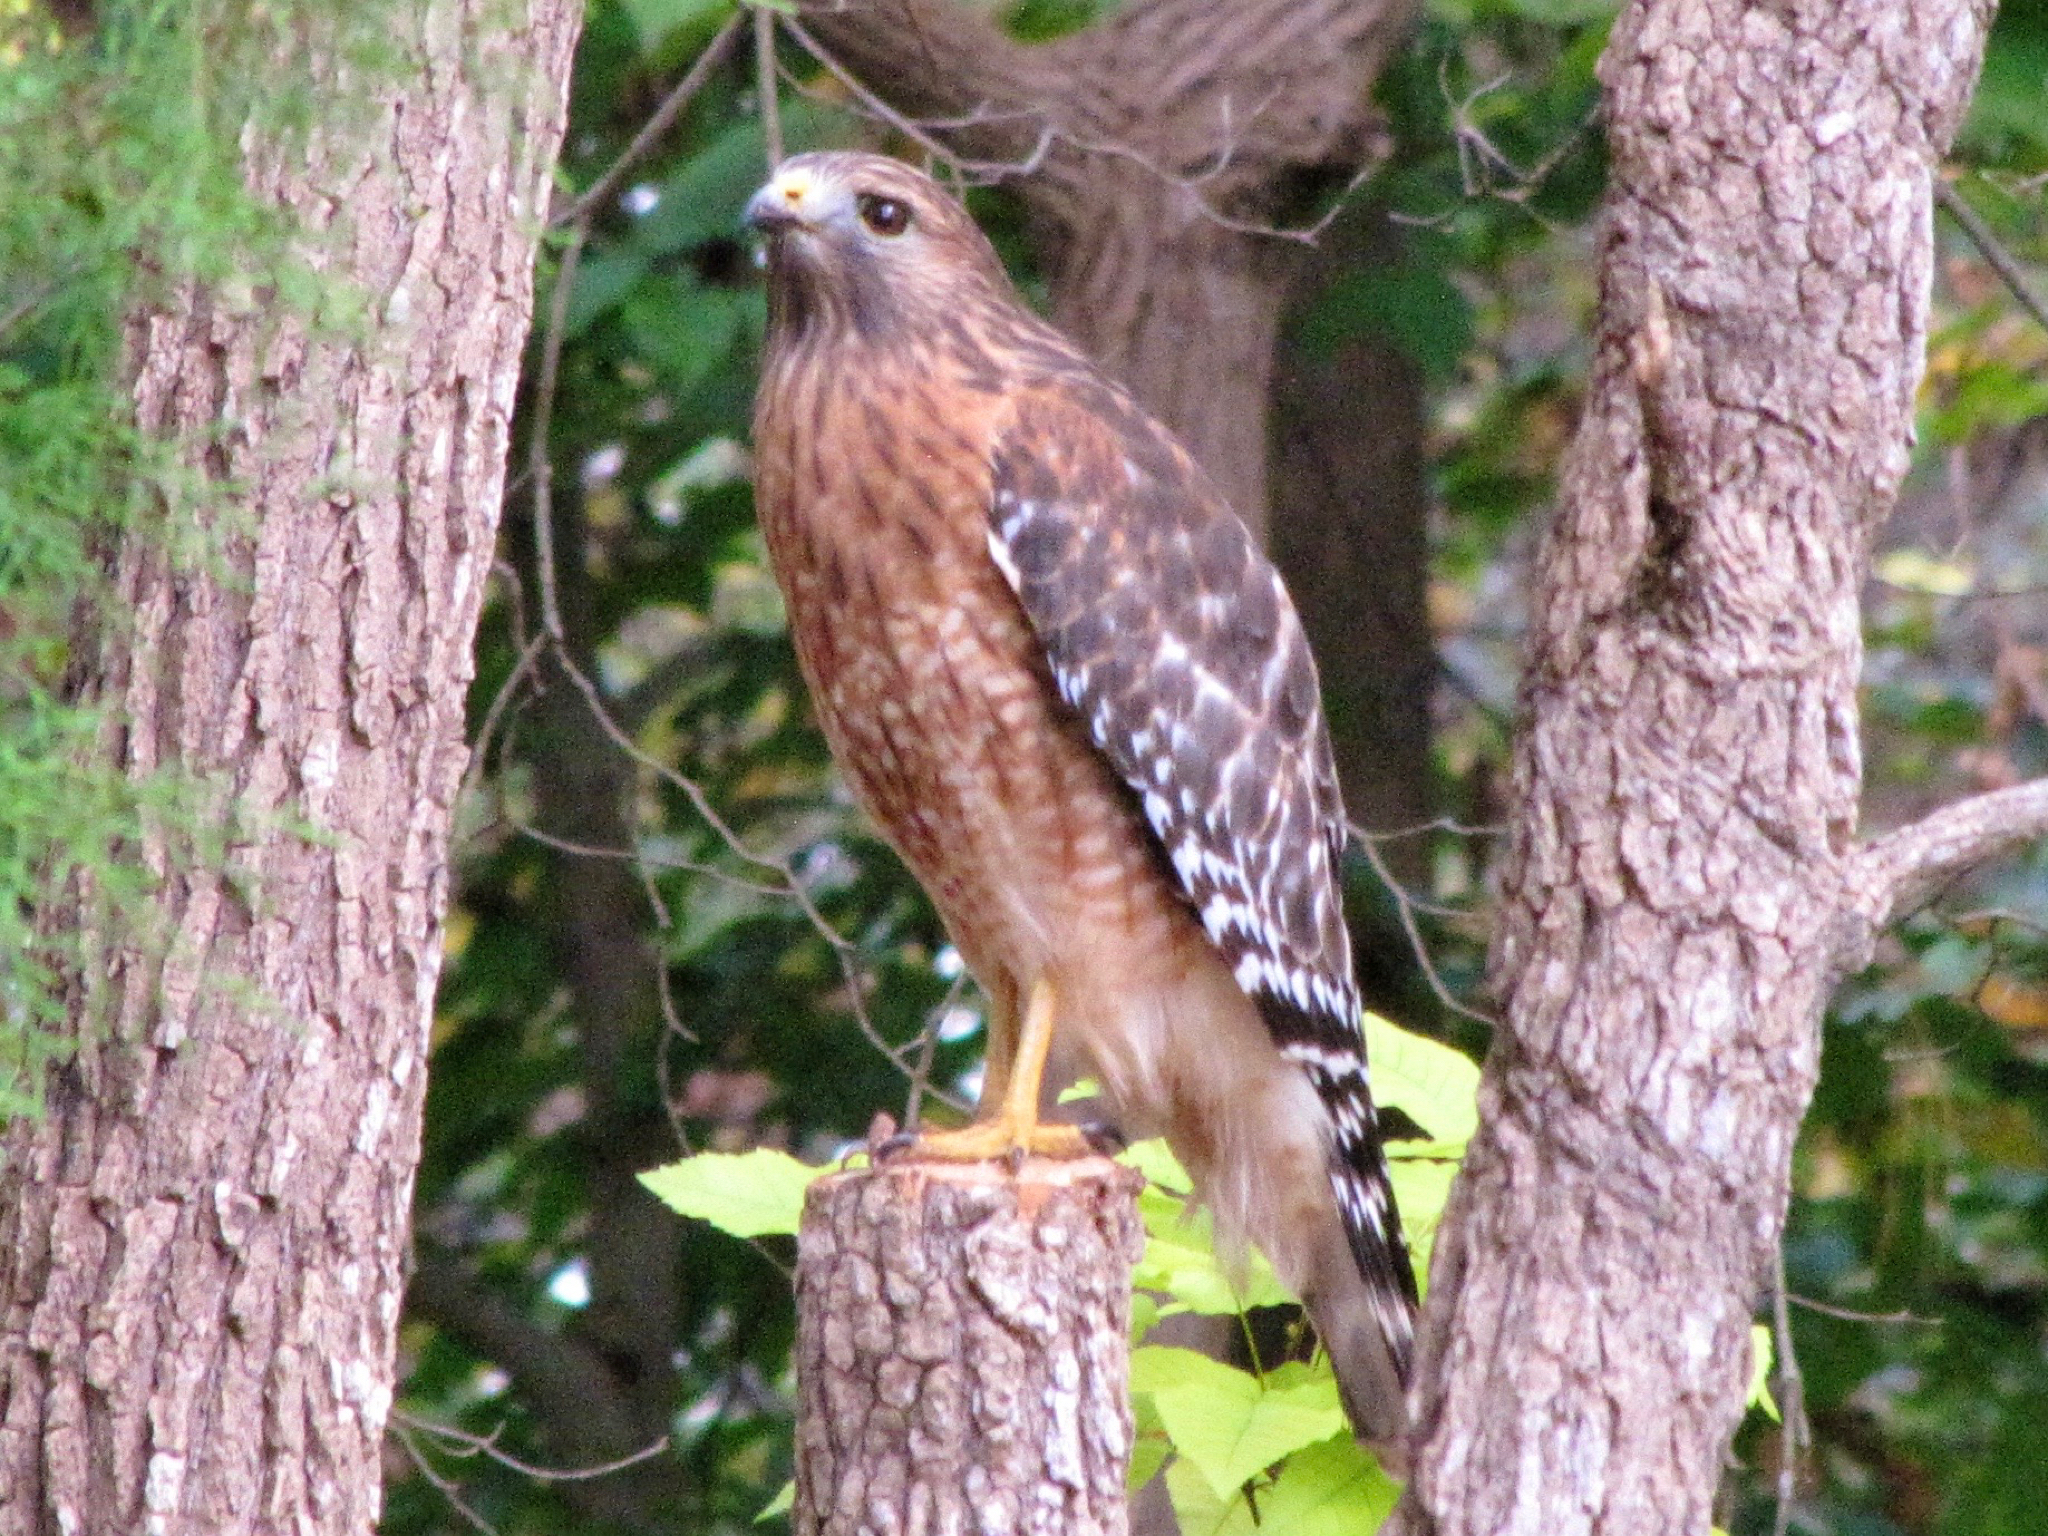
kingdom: Animalia
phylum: Chordata
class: Aves
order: Accipitriformes
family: Accipitridae
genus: Buteo
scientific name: Buteo lineatus
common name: Red-shouldered hawk
